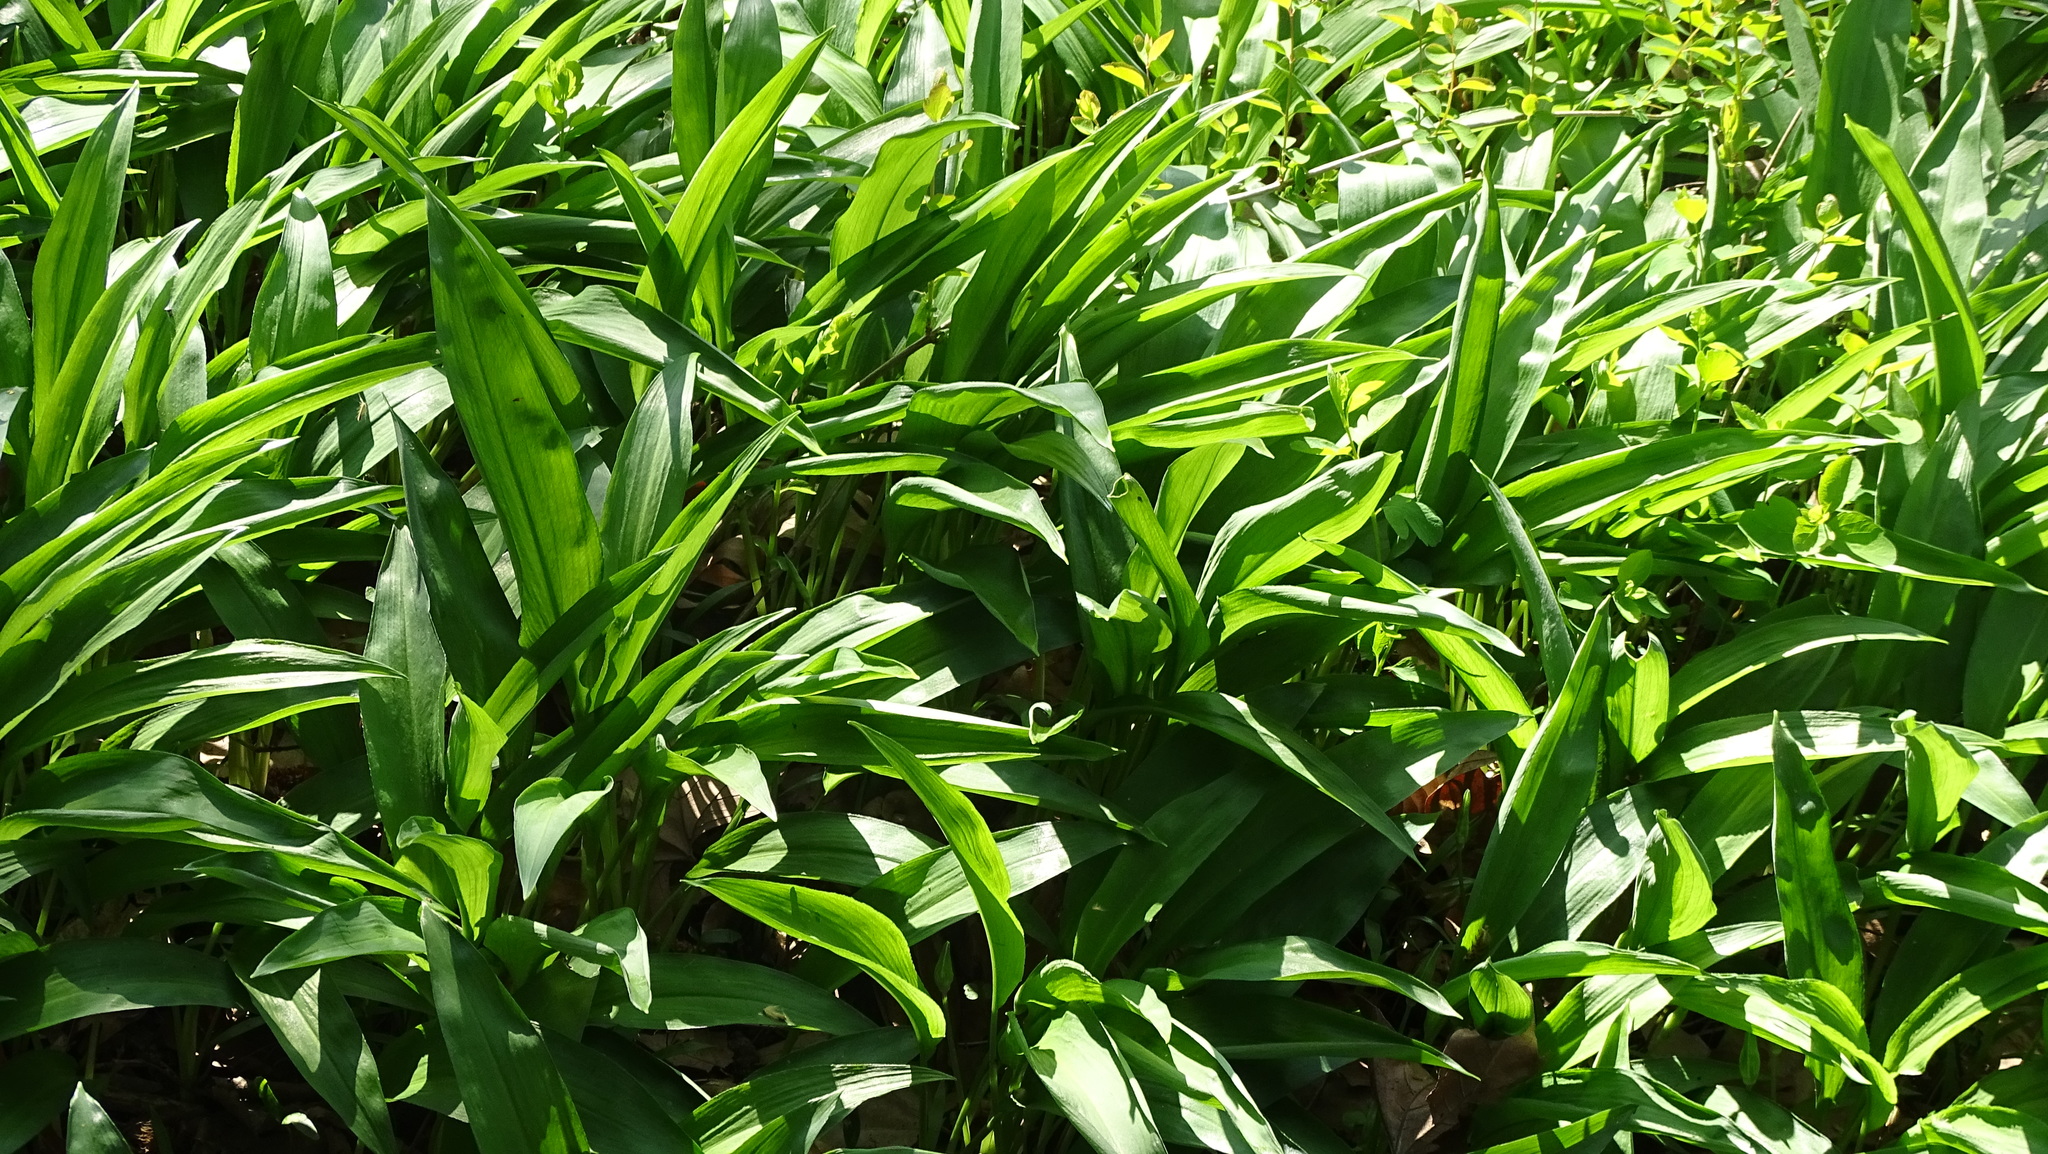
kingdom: Plantae
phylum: Tracheophyta
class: Liliopsida
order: Asparagales
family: Amaryllidaceae
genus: Allium
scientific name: Allium ursinum
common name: Ramsons
